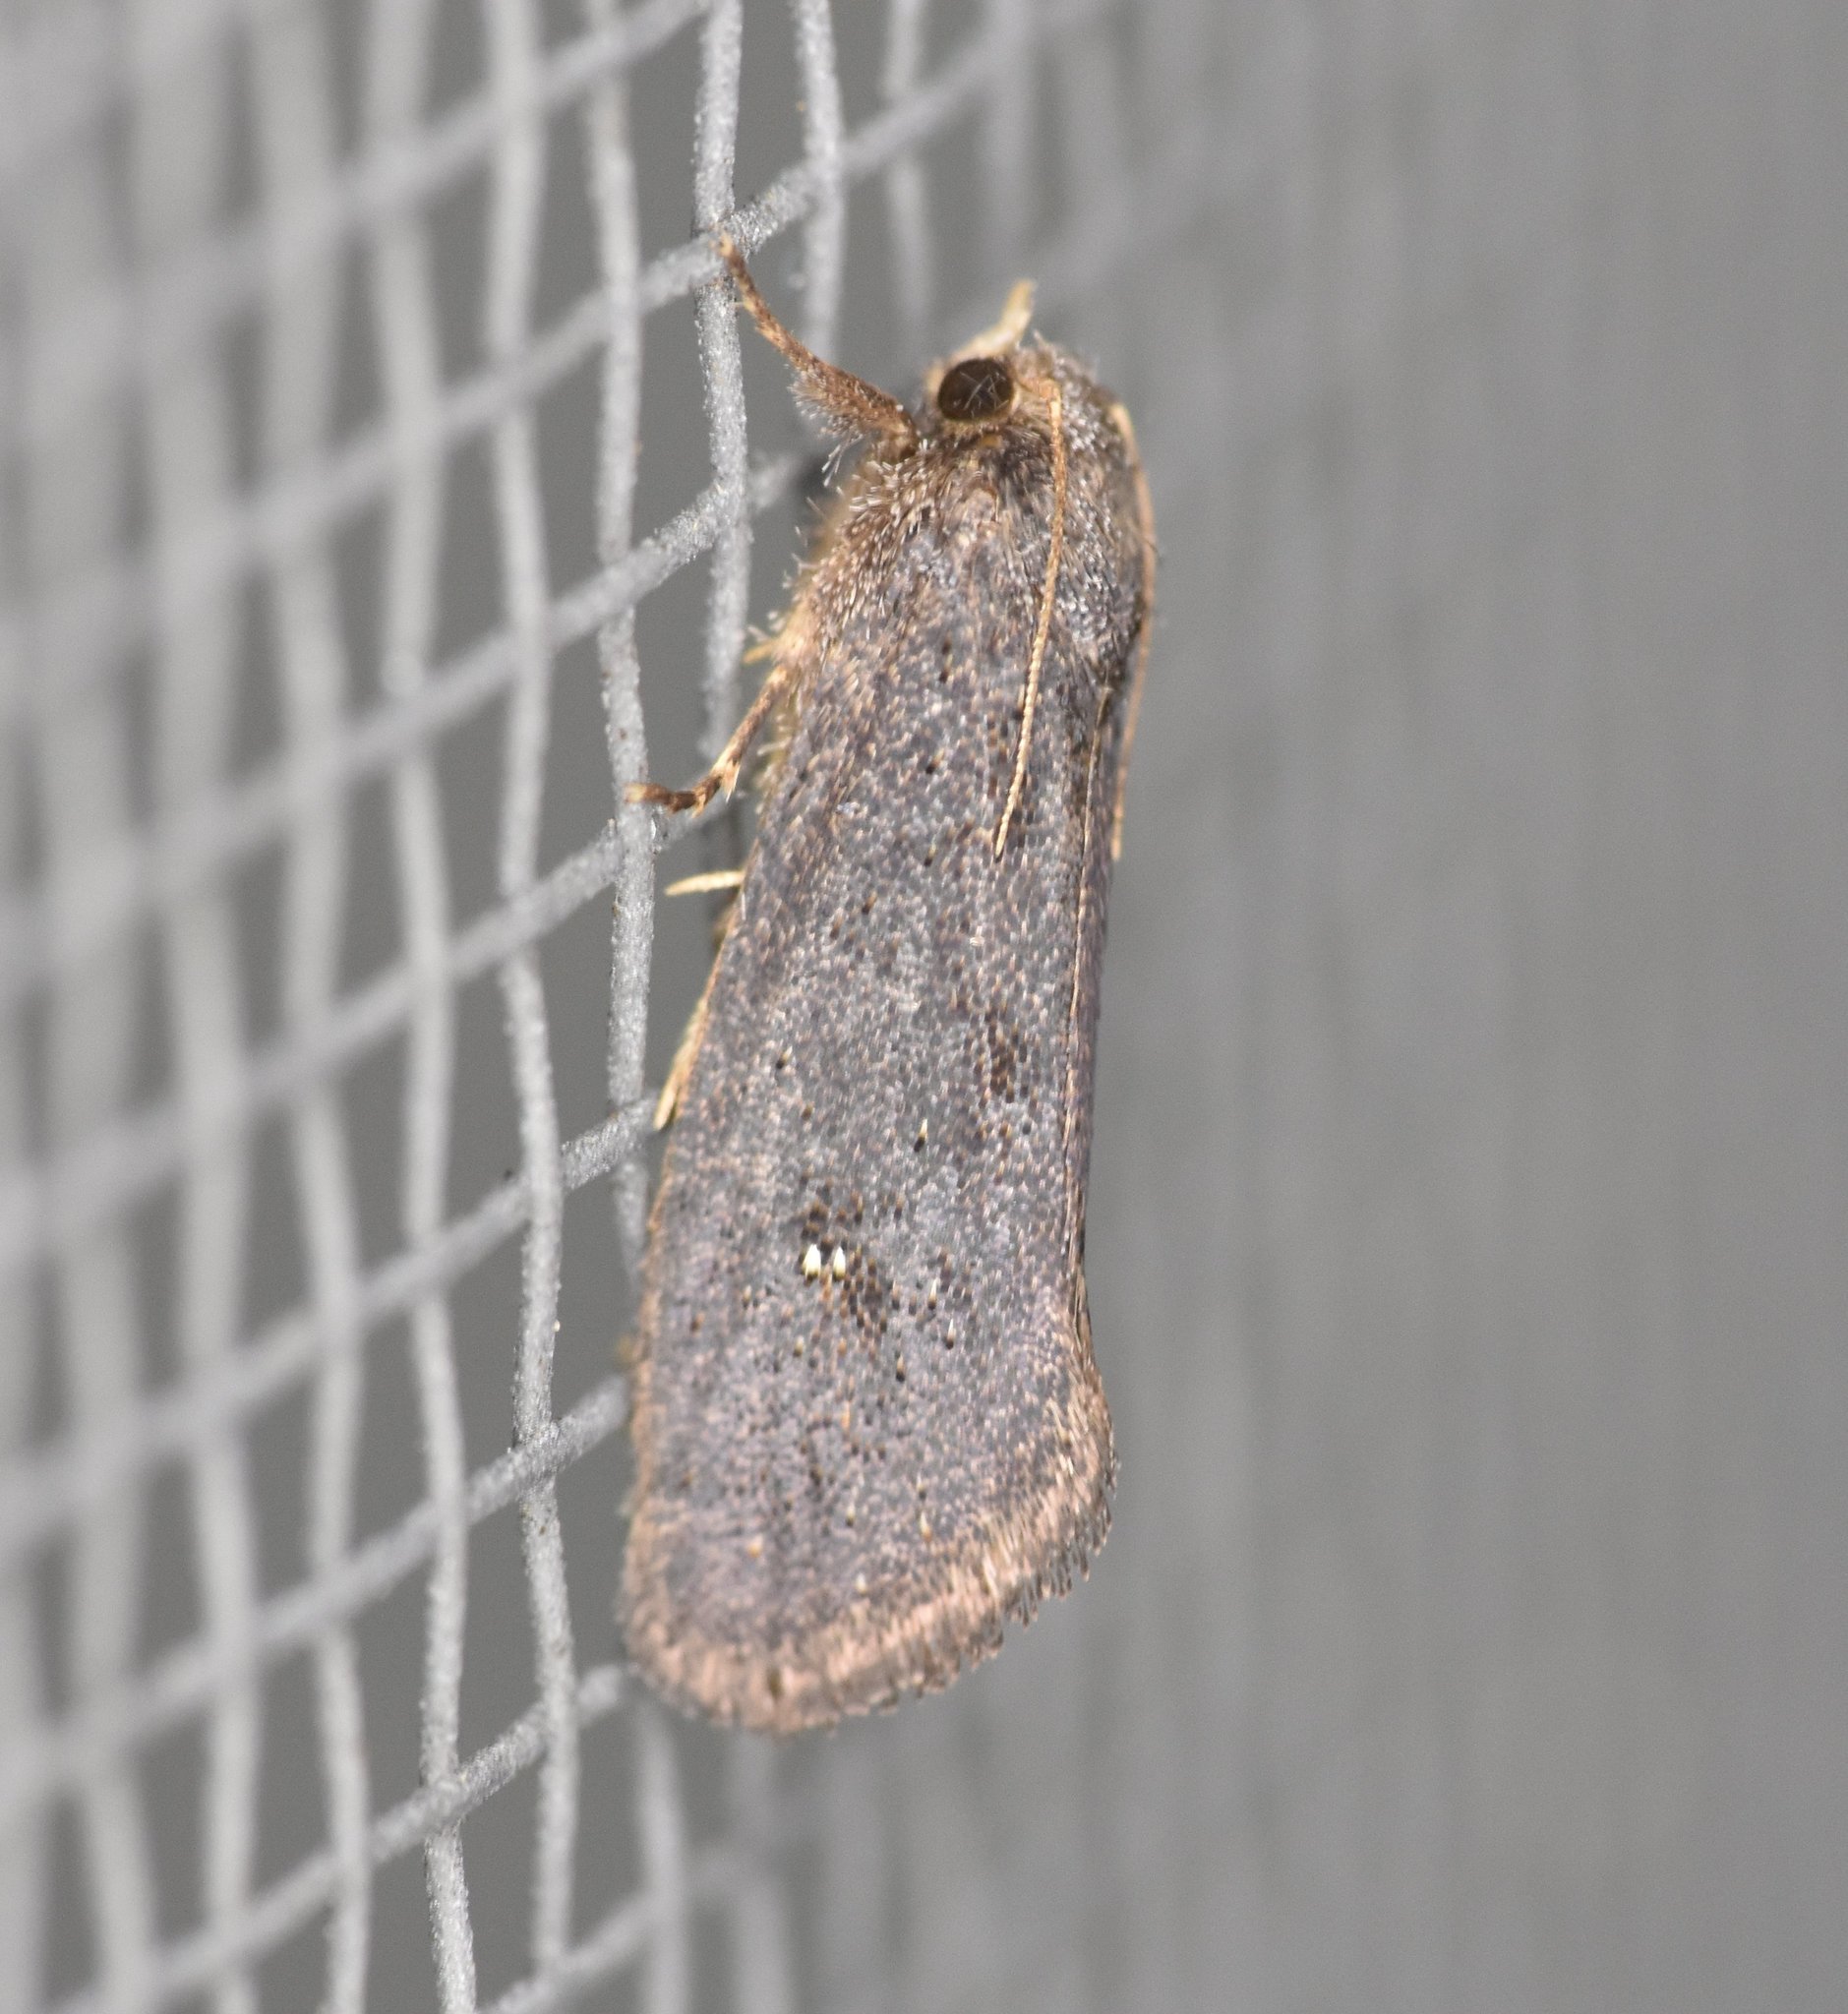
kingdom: Animalia
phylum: Arthropoda
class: Insecta
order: Lepidoptera
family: Tineidae
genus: Acrolophus
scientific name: Acrolophus walsinghami
